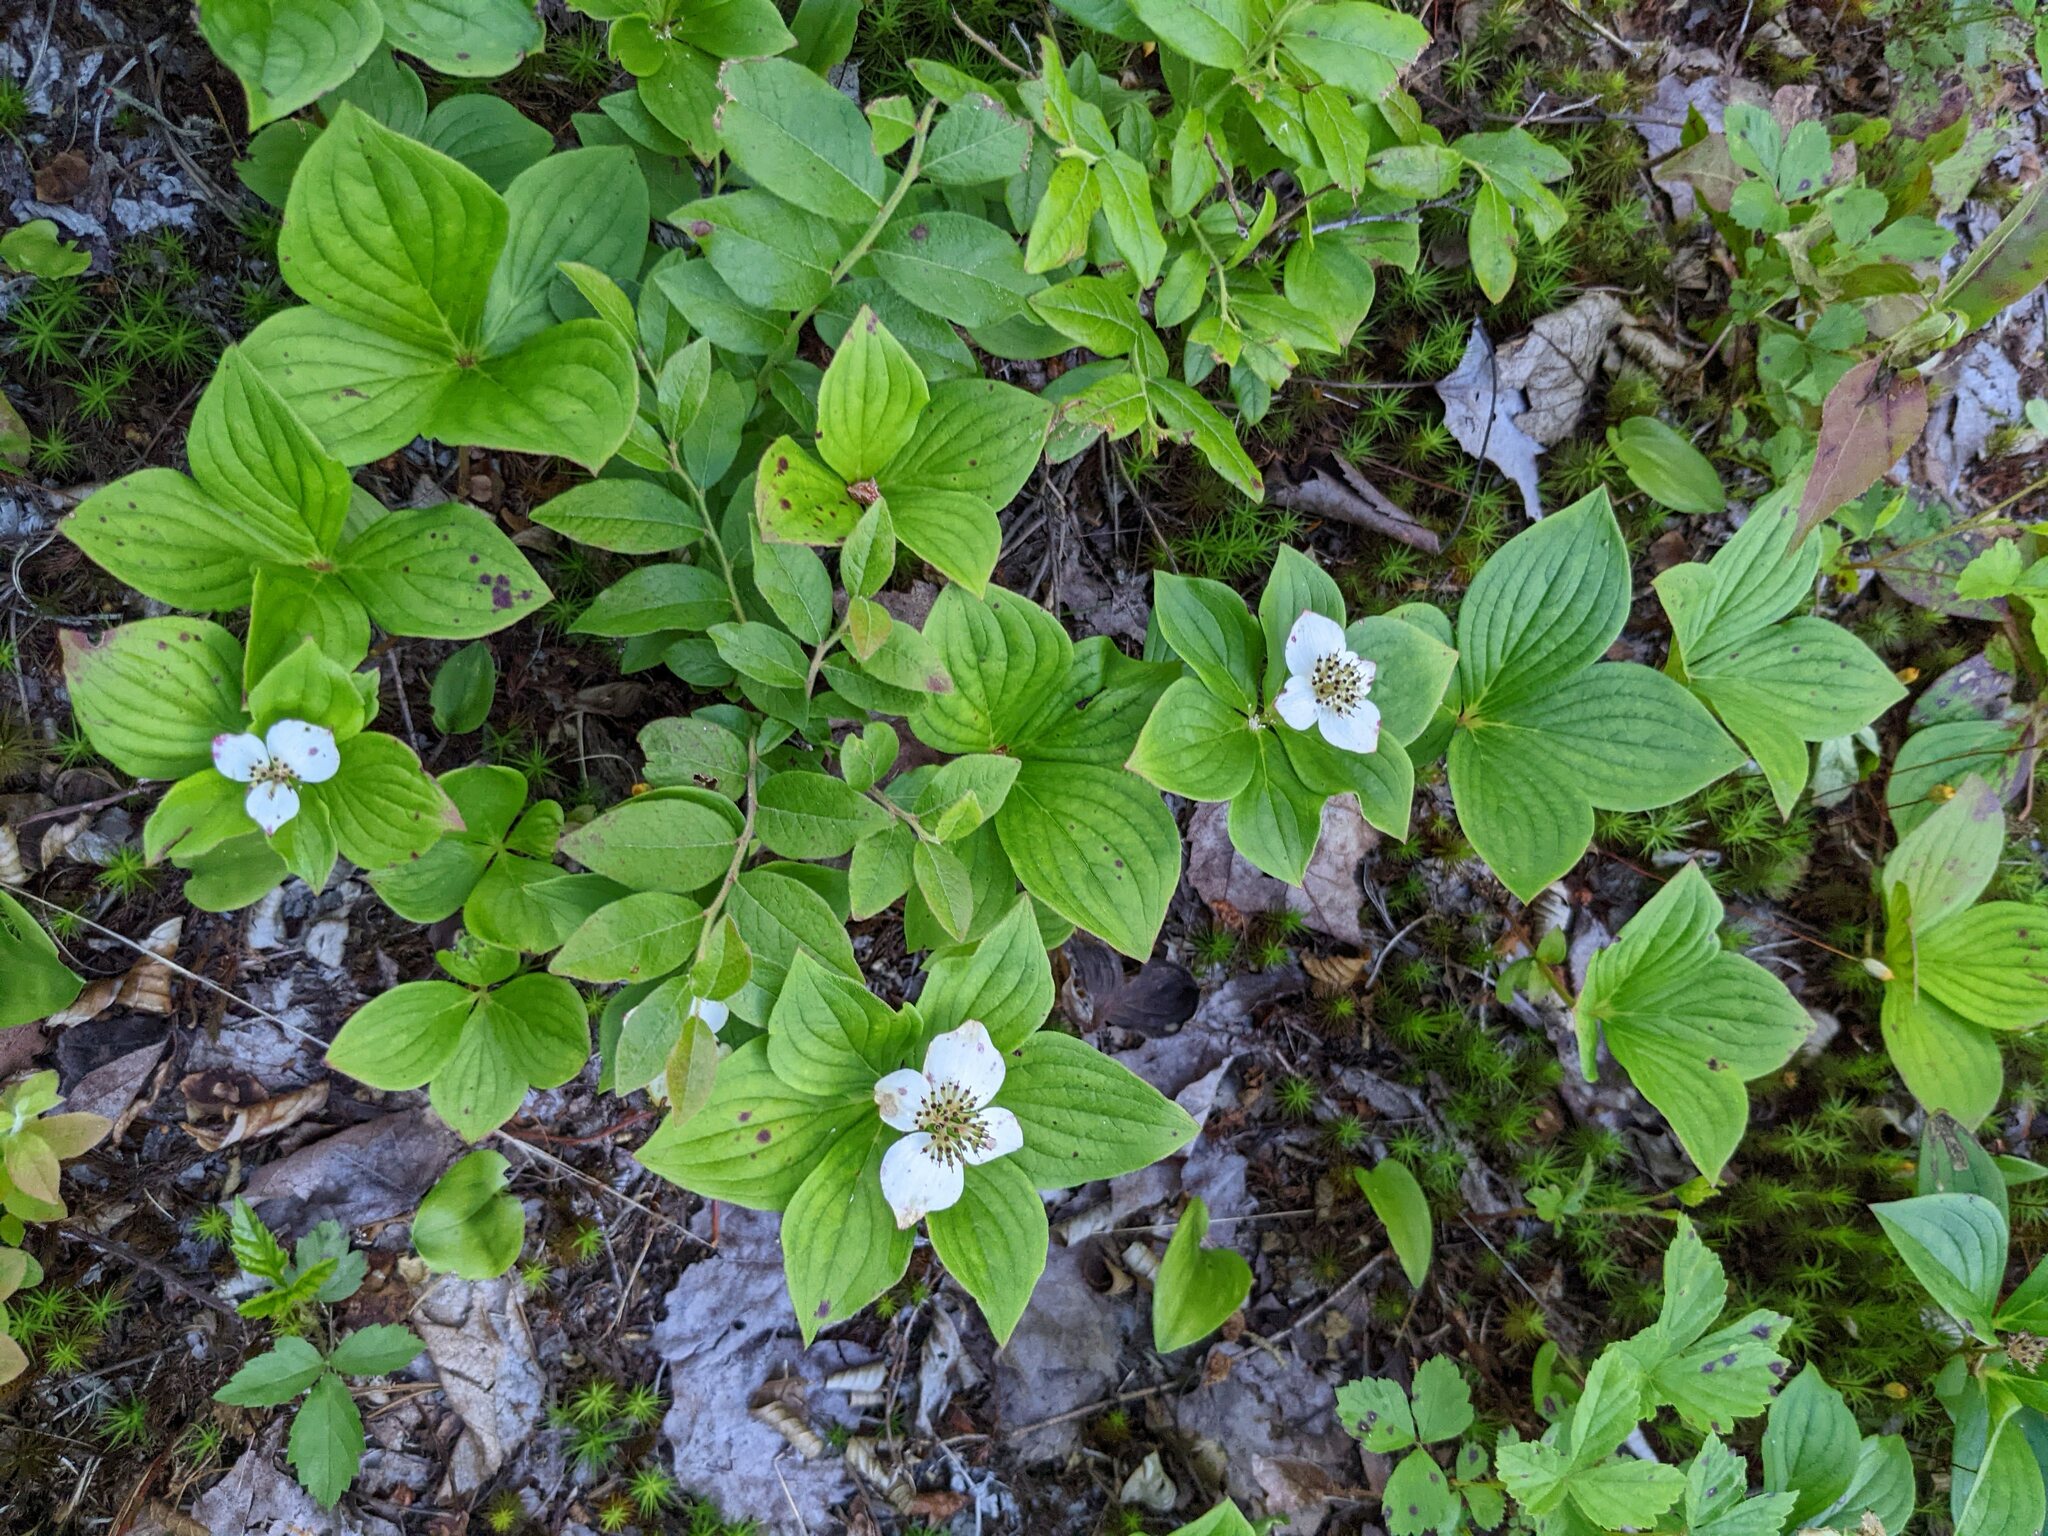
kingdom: Plantae
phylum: Tracheophyta
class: Magnoliopsida
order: Cornales
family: Cornaceae
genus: Cornus
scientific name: Cornus canadensis
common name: Creeping dogwood
